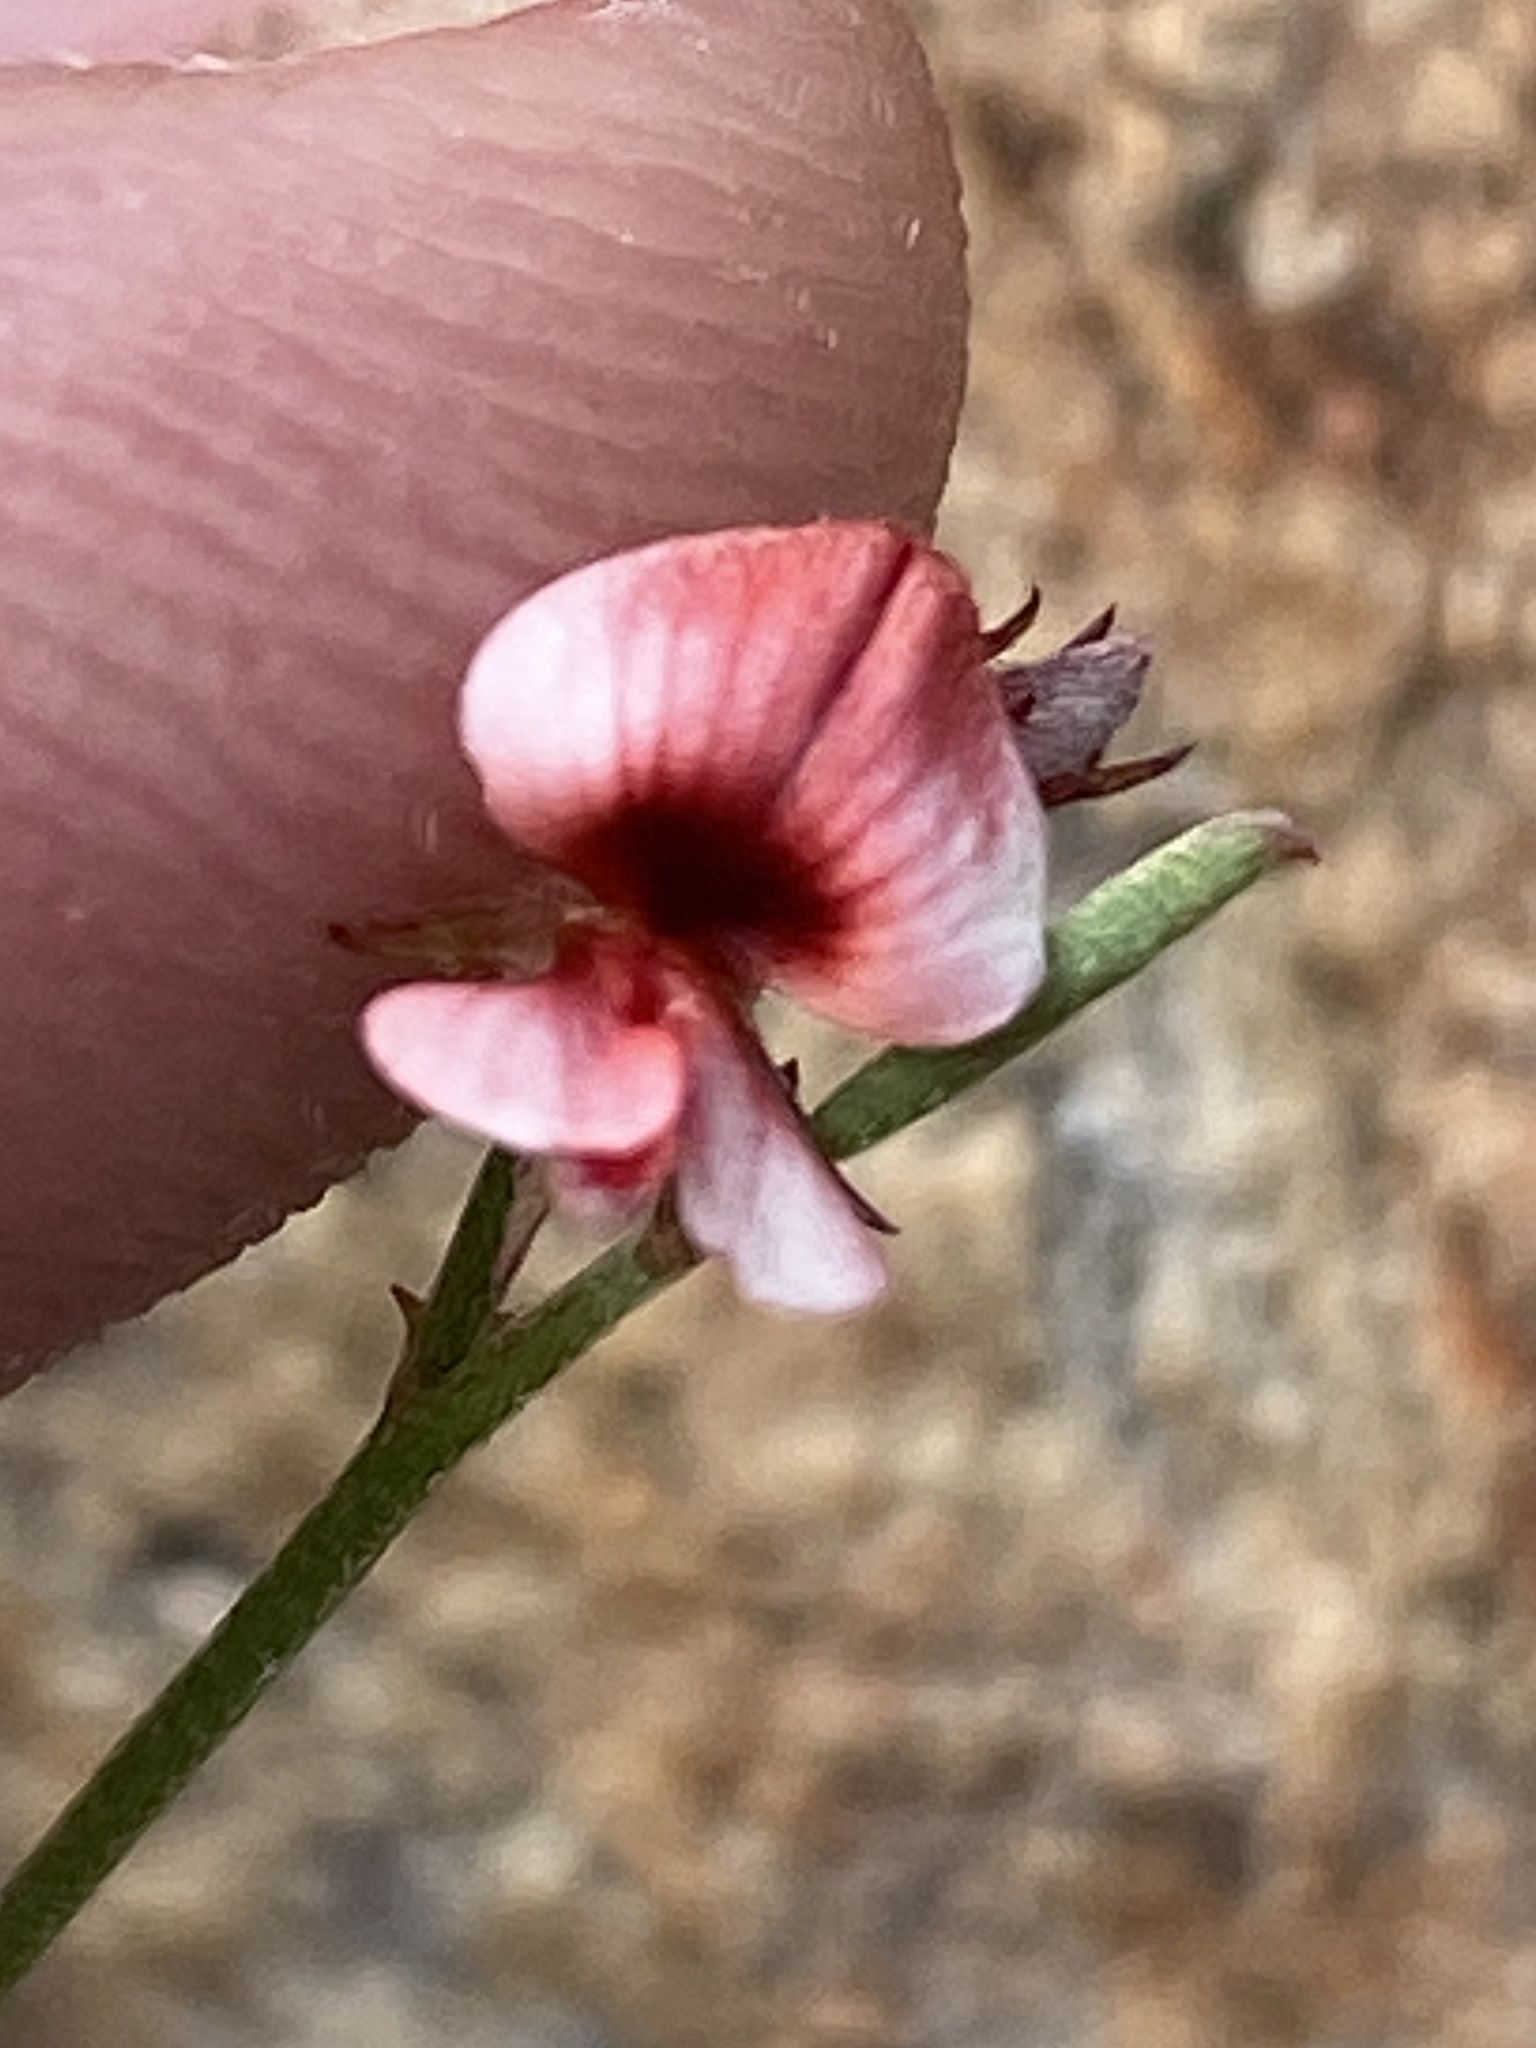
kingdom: Plantae
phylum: Tracheophyta
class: Magnoliopsida
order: Fabales
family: Fabaceae
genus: Indigofera
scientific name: Indigofera leptocarpa
